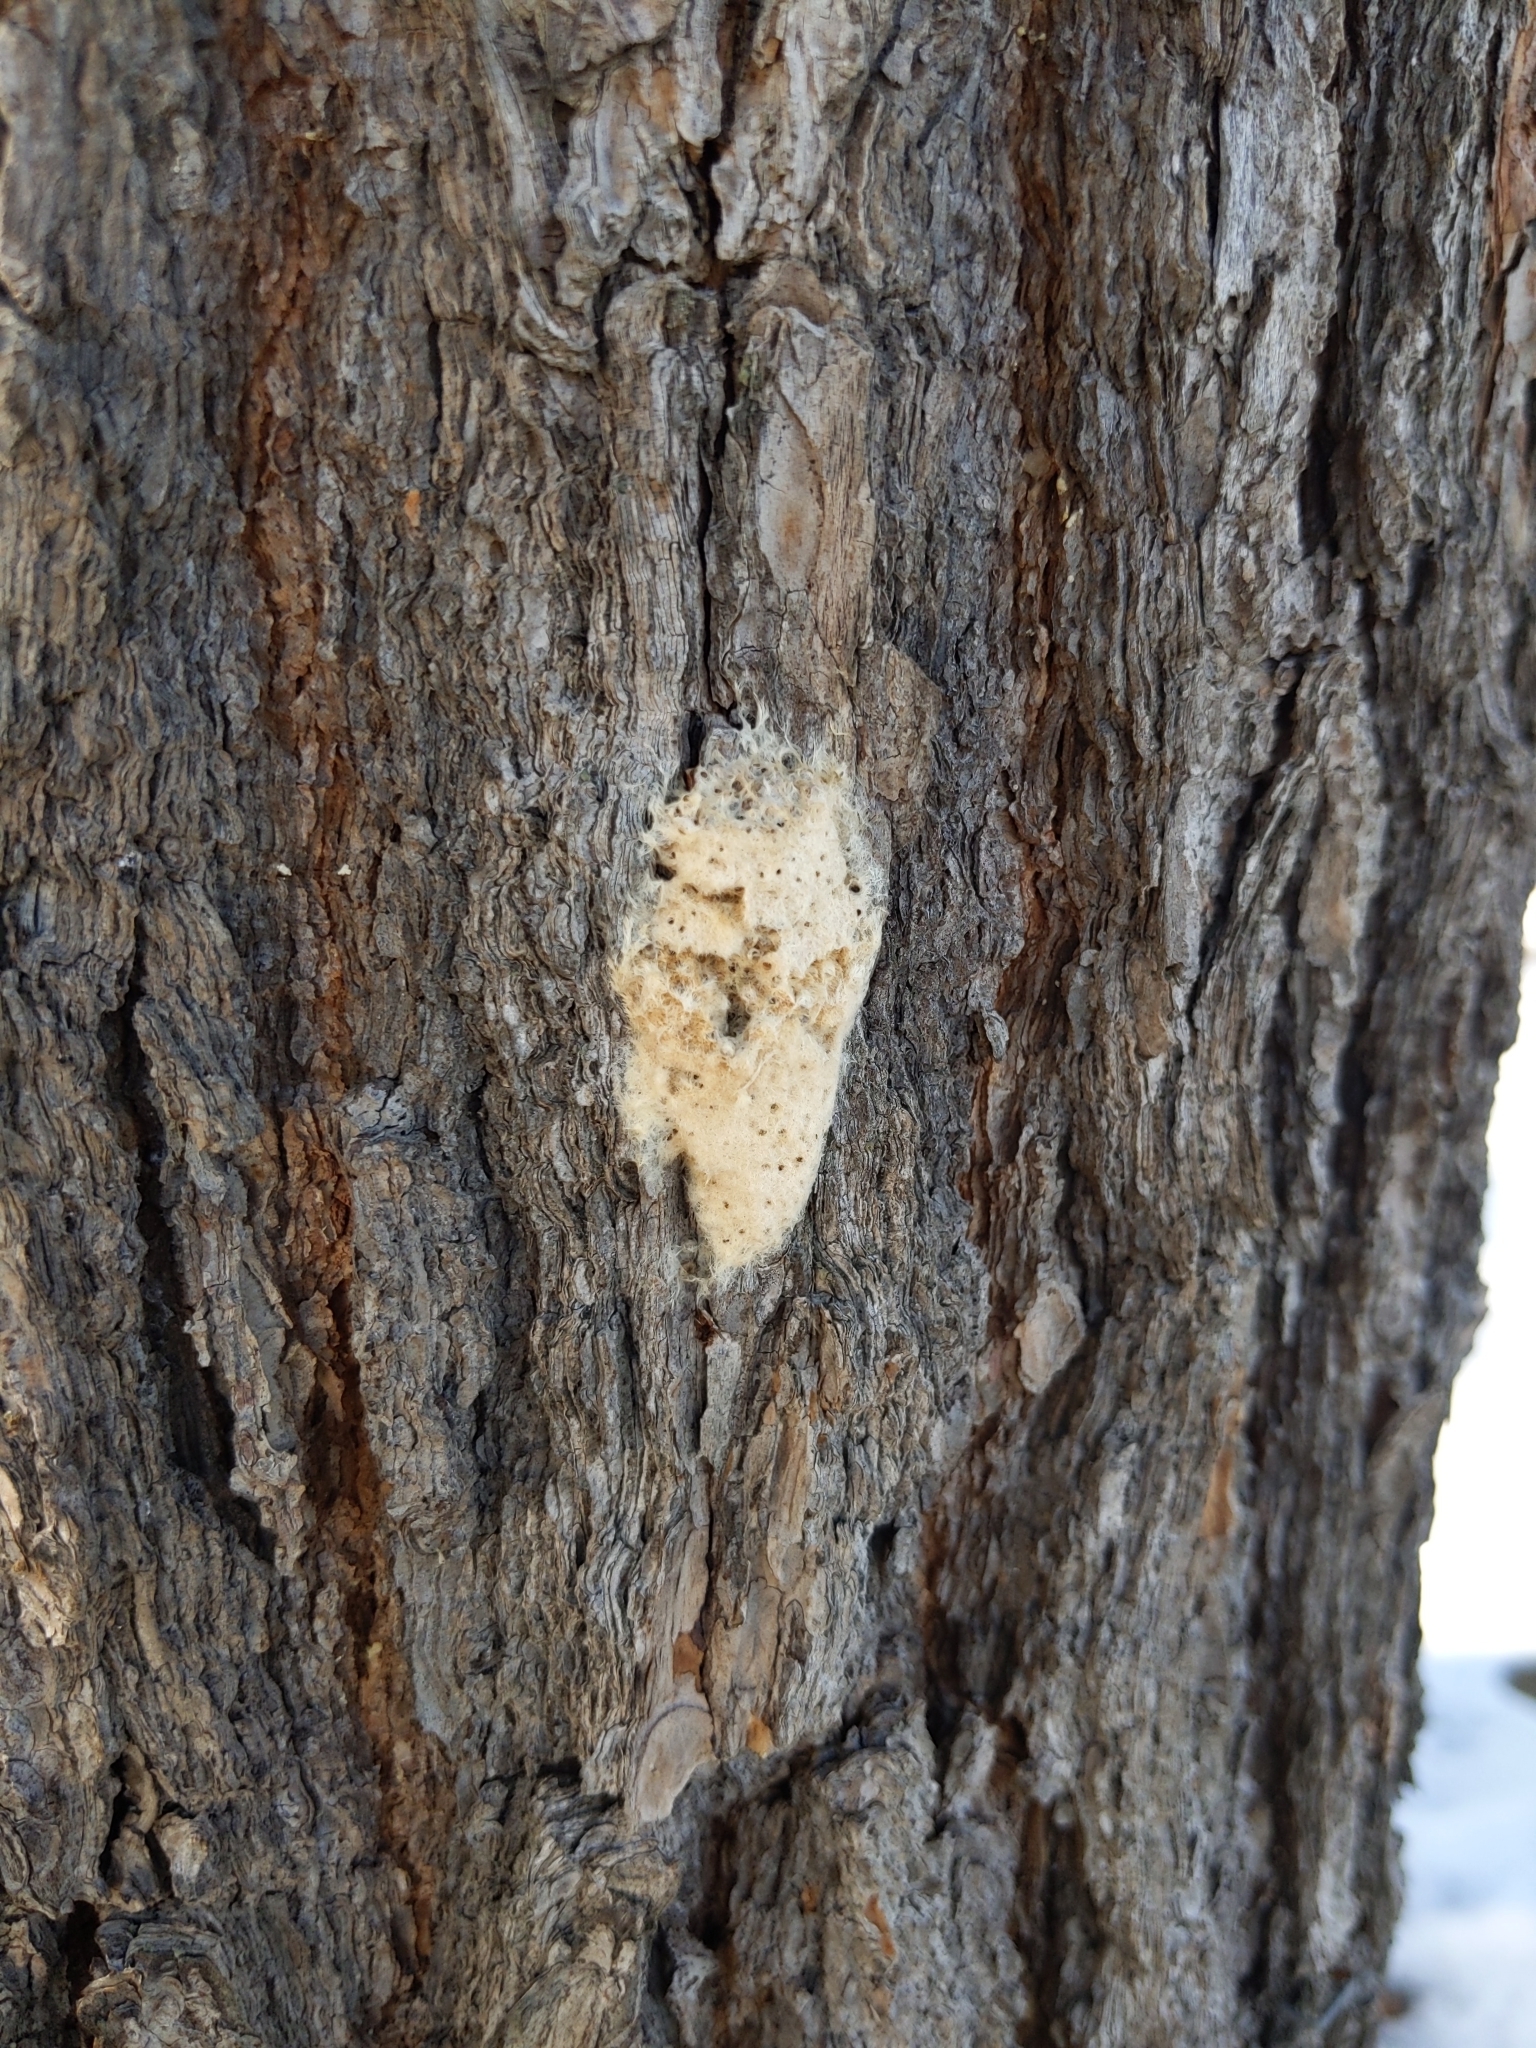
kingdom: Animalia
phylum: Arthropoda
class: Insecta
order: Lepidoptera
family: Erebidae
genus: Lymantria
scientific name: Lymantria dispar
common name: Gypsy moth
